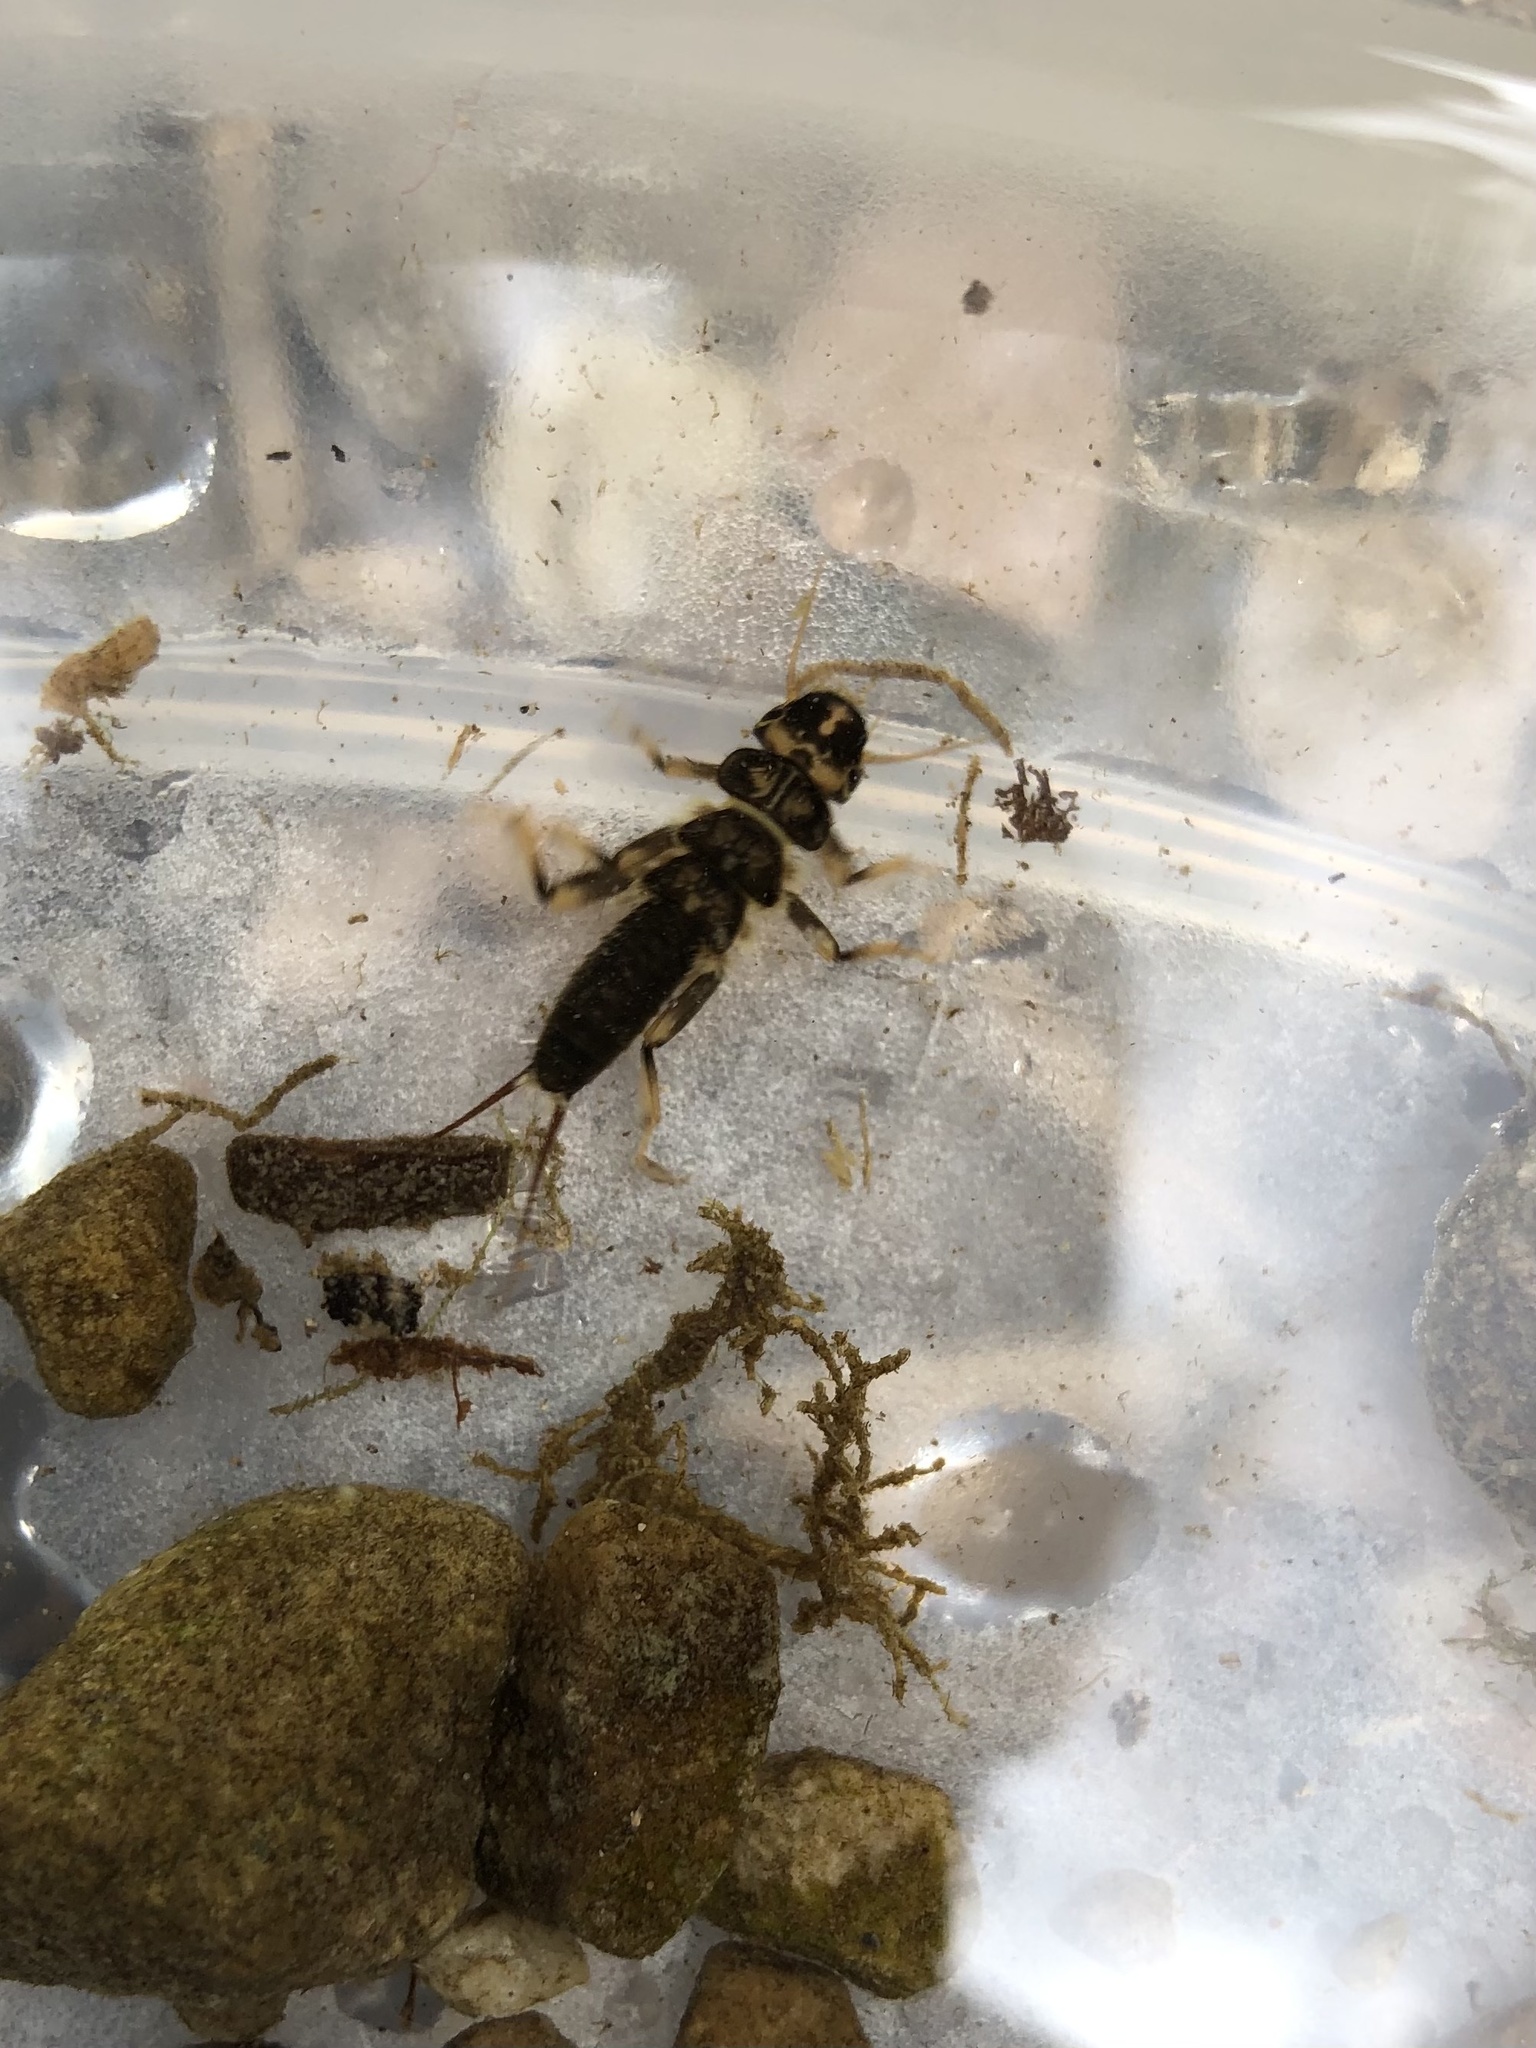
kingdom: Animalia
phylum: Arthropoda
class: Insecta
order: Plecoptera
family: Perlidae
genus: Hesperoperla
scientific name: Hesperoperla pacifica
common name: Golden stone
